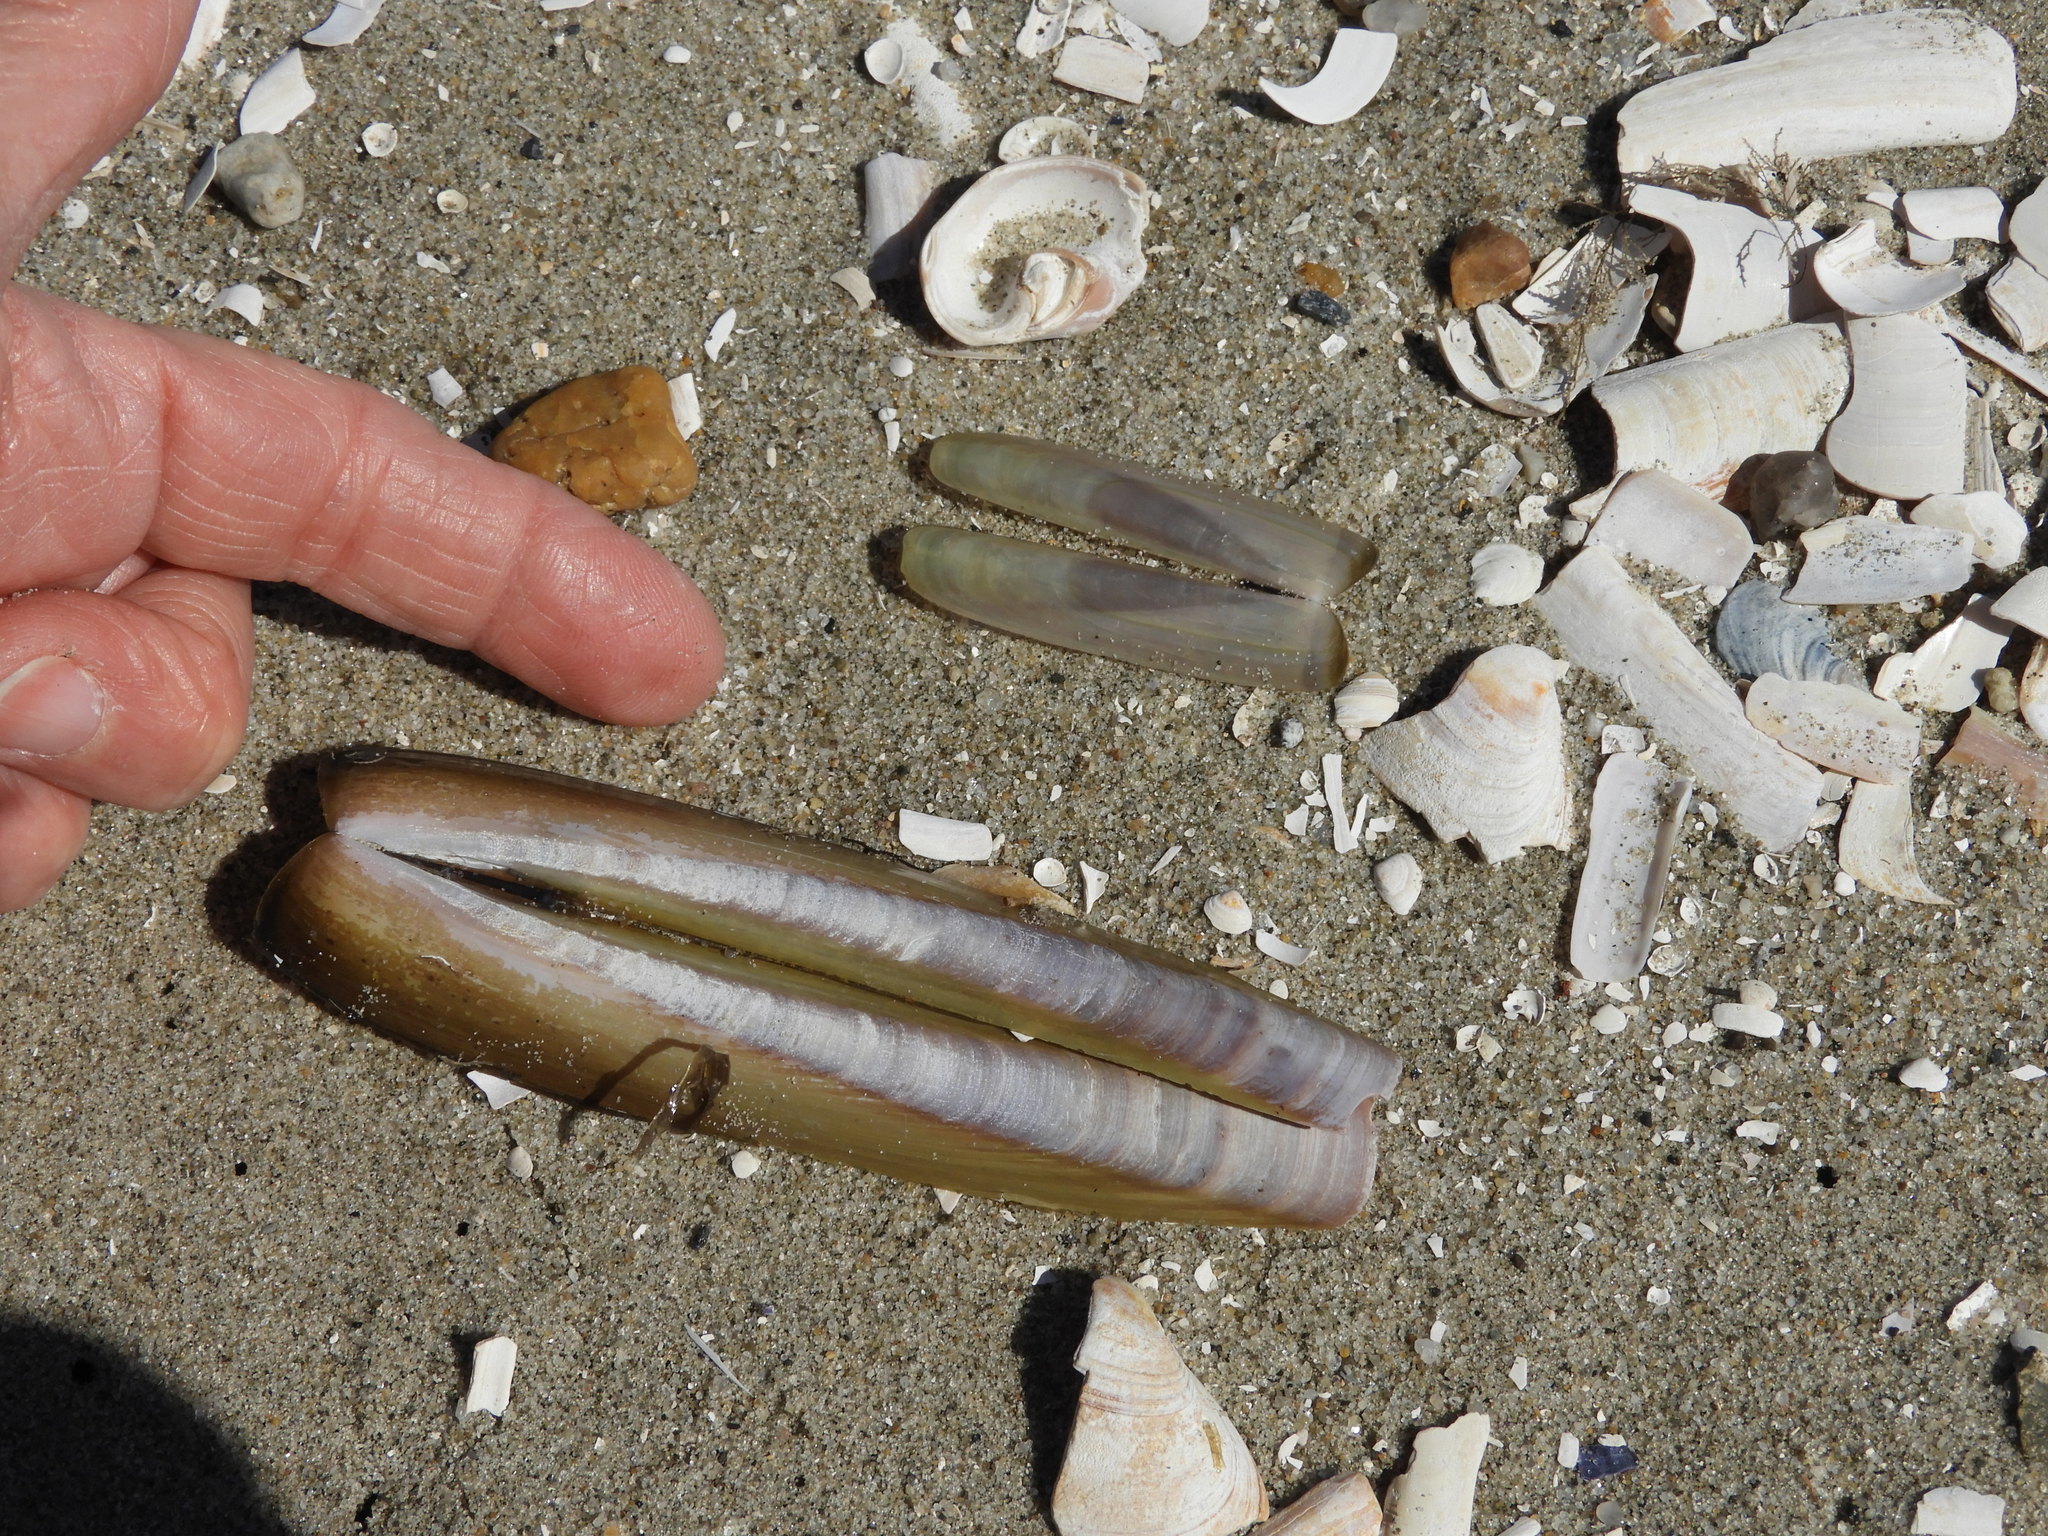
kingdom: Animalia
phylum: Mollusca
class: Bivalvia
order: Adapedonta
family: Pharidae
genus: Ensis
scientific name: Ensis leei
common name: American jack knife clam
